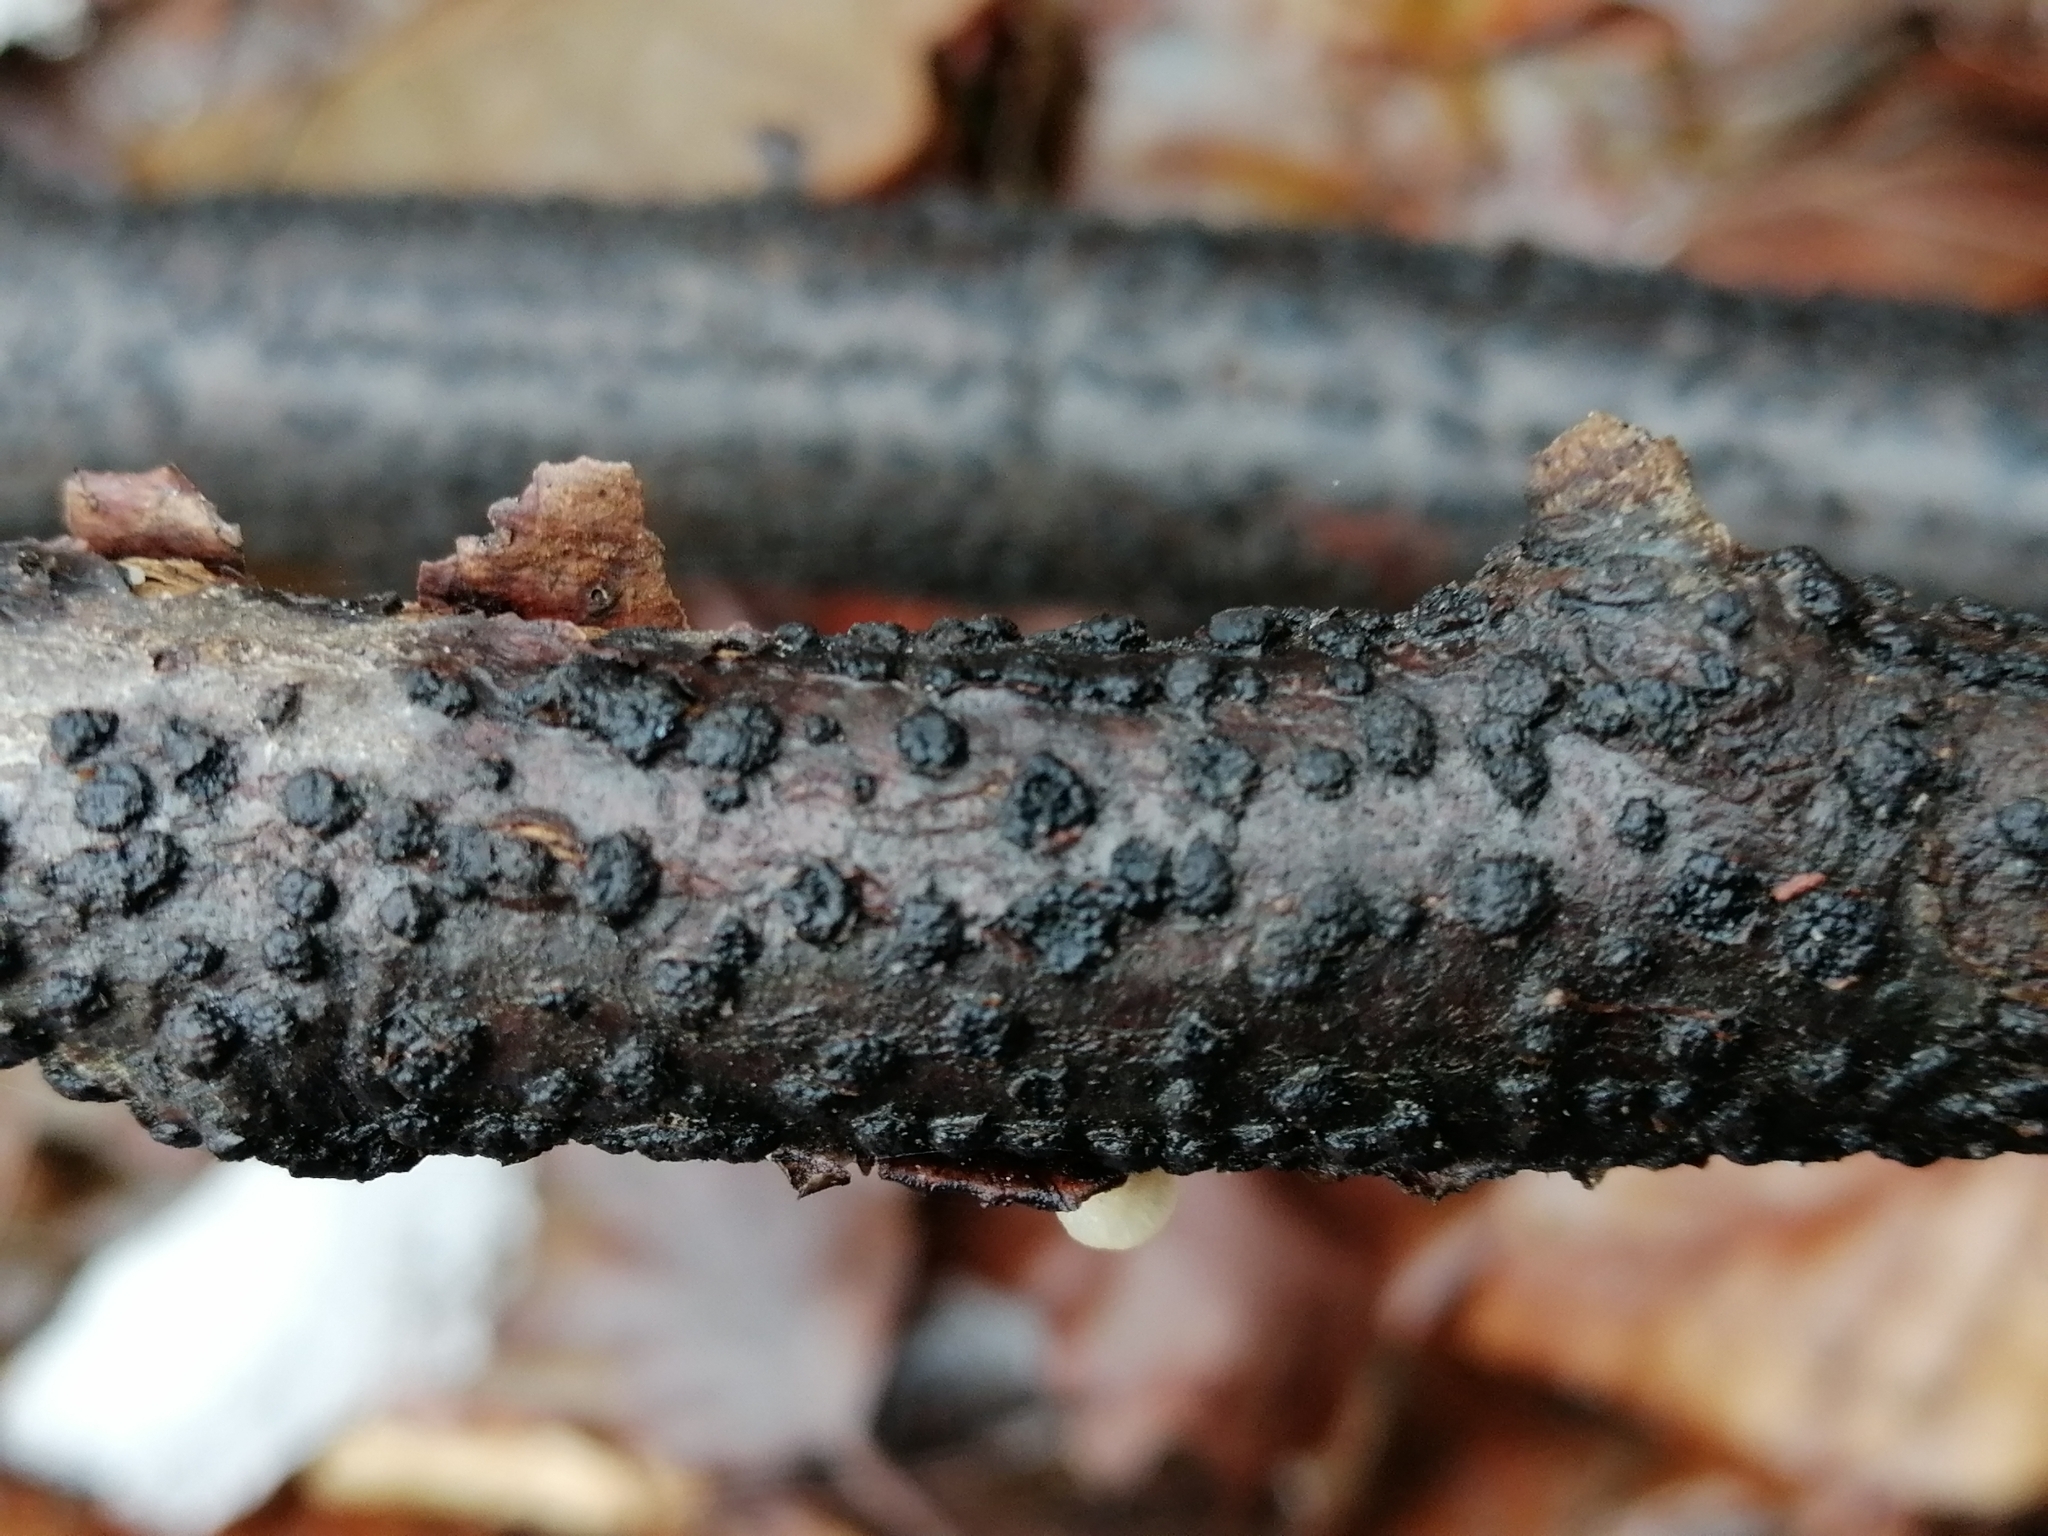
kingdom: Fungi
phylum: Ascomycota
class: Sordariomycetes
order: Xylariales
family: Diatrypaceae
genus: Diatrypella
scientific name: Diatrypella quercina
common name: Oak blackhead
